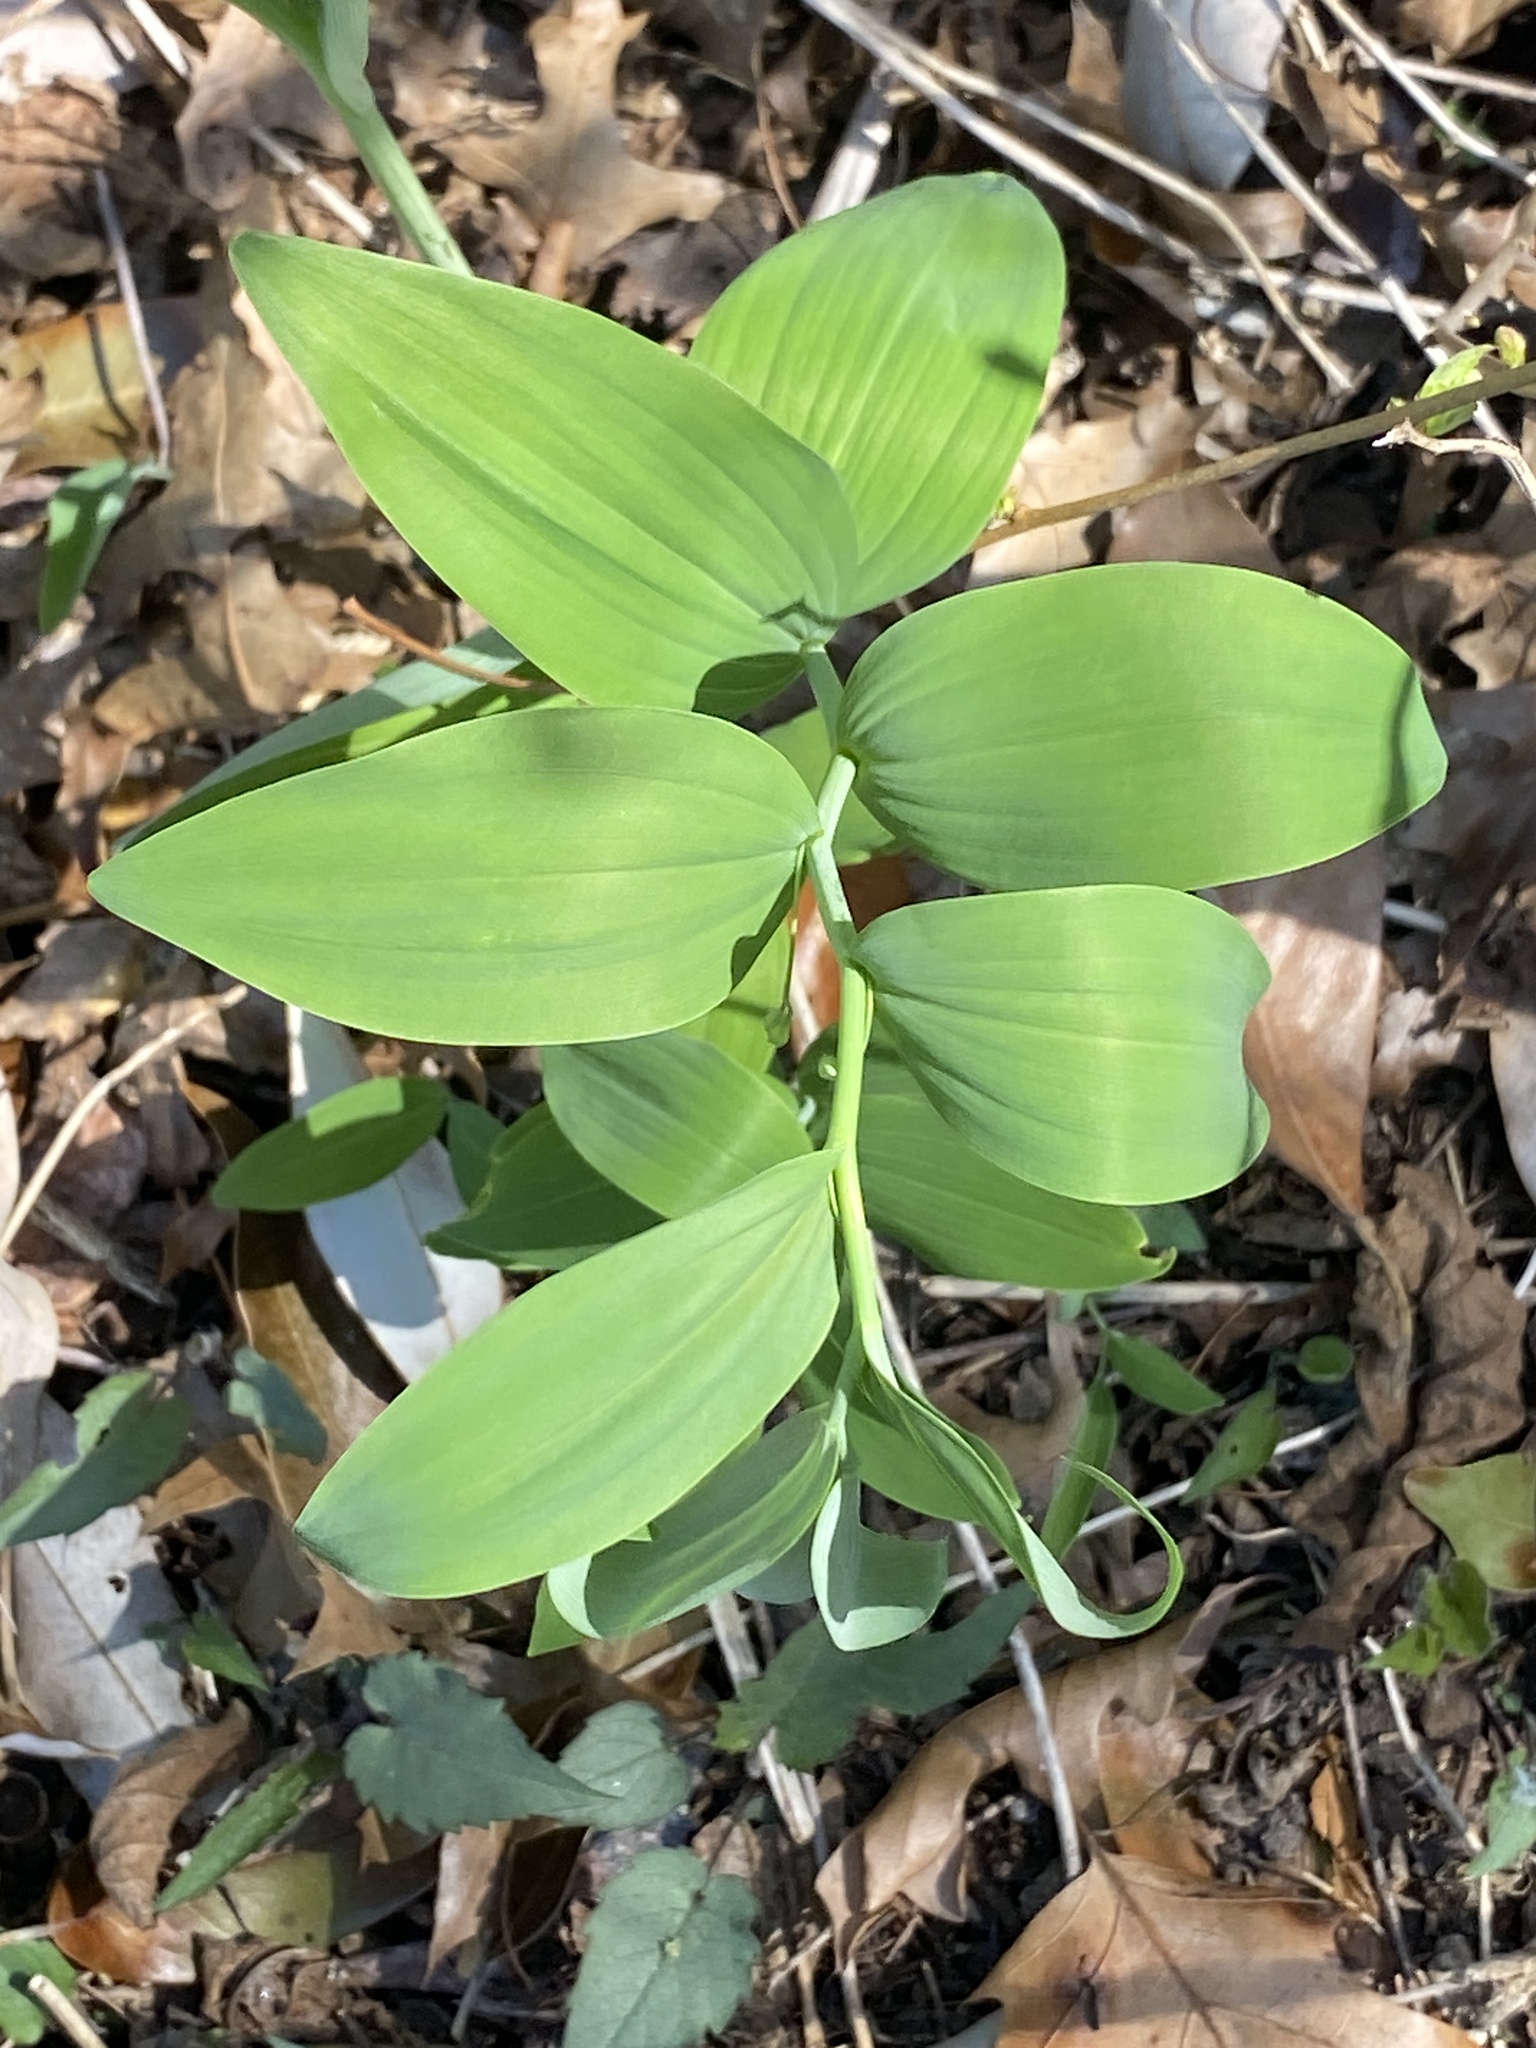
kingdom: Plantae
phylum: Tracheophyta
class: Liliopsida
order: Asparagales
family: Asparagaceae
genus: Polygonatum
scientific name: Polygonatum biflorum
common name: American solomon's-seal
